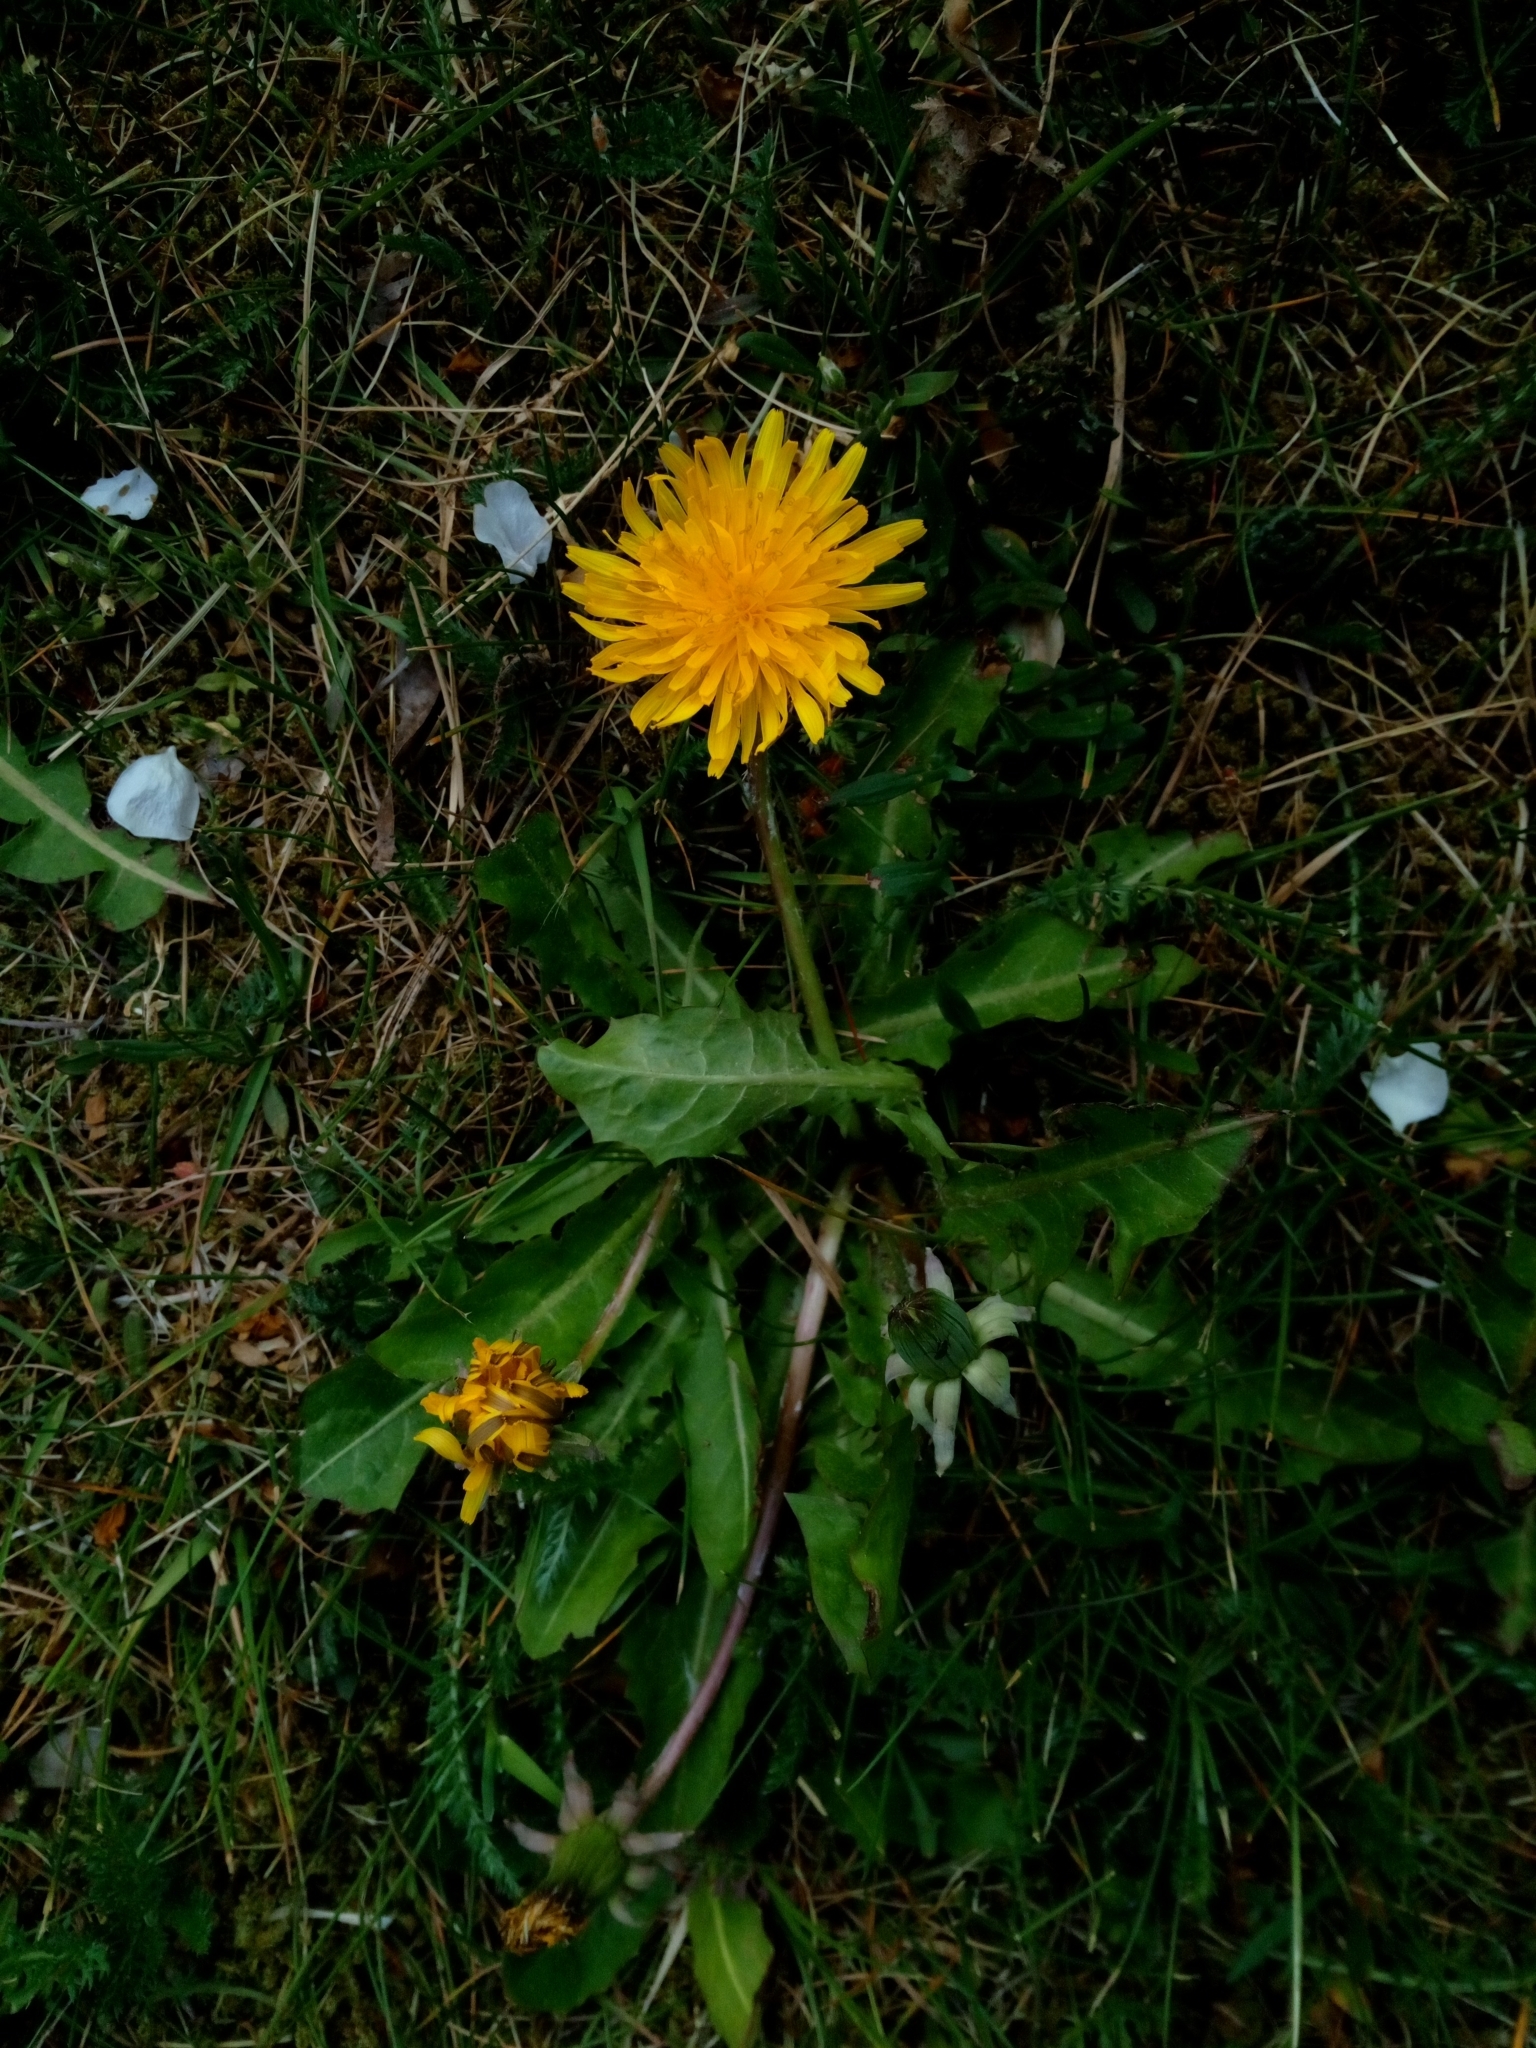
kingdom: Plantae
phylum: Tracheophyta
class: Magnoliopsida
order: Asterales
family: Asteraceae
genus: Taraxacum
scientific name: Taraxacum officinale
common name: Common dandelion
